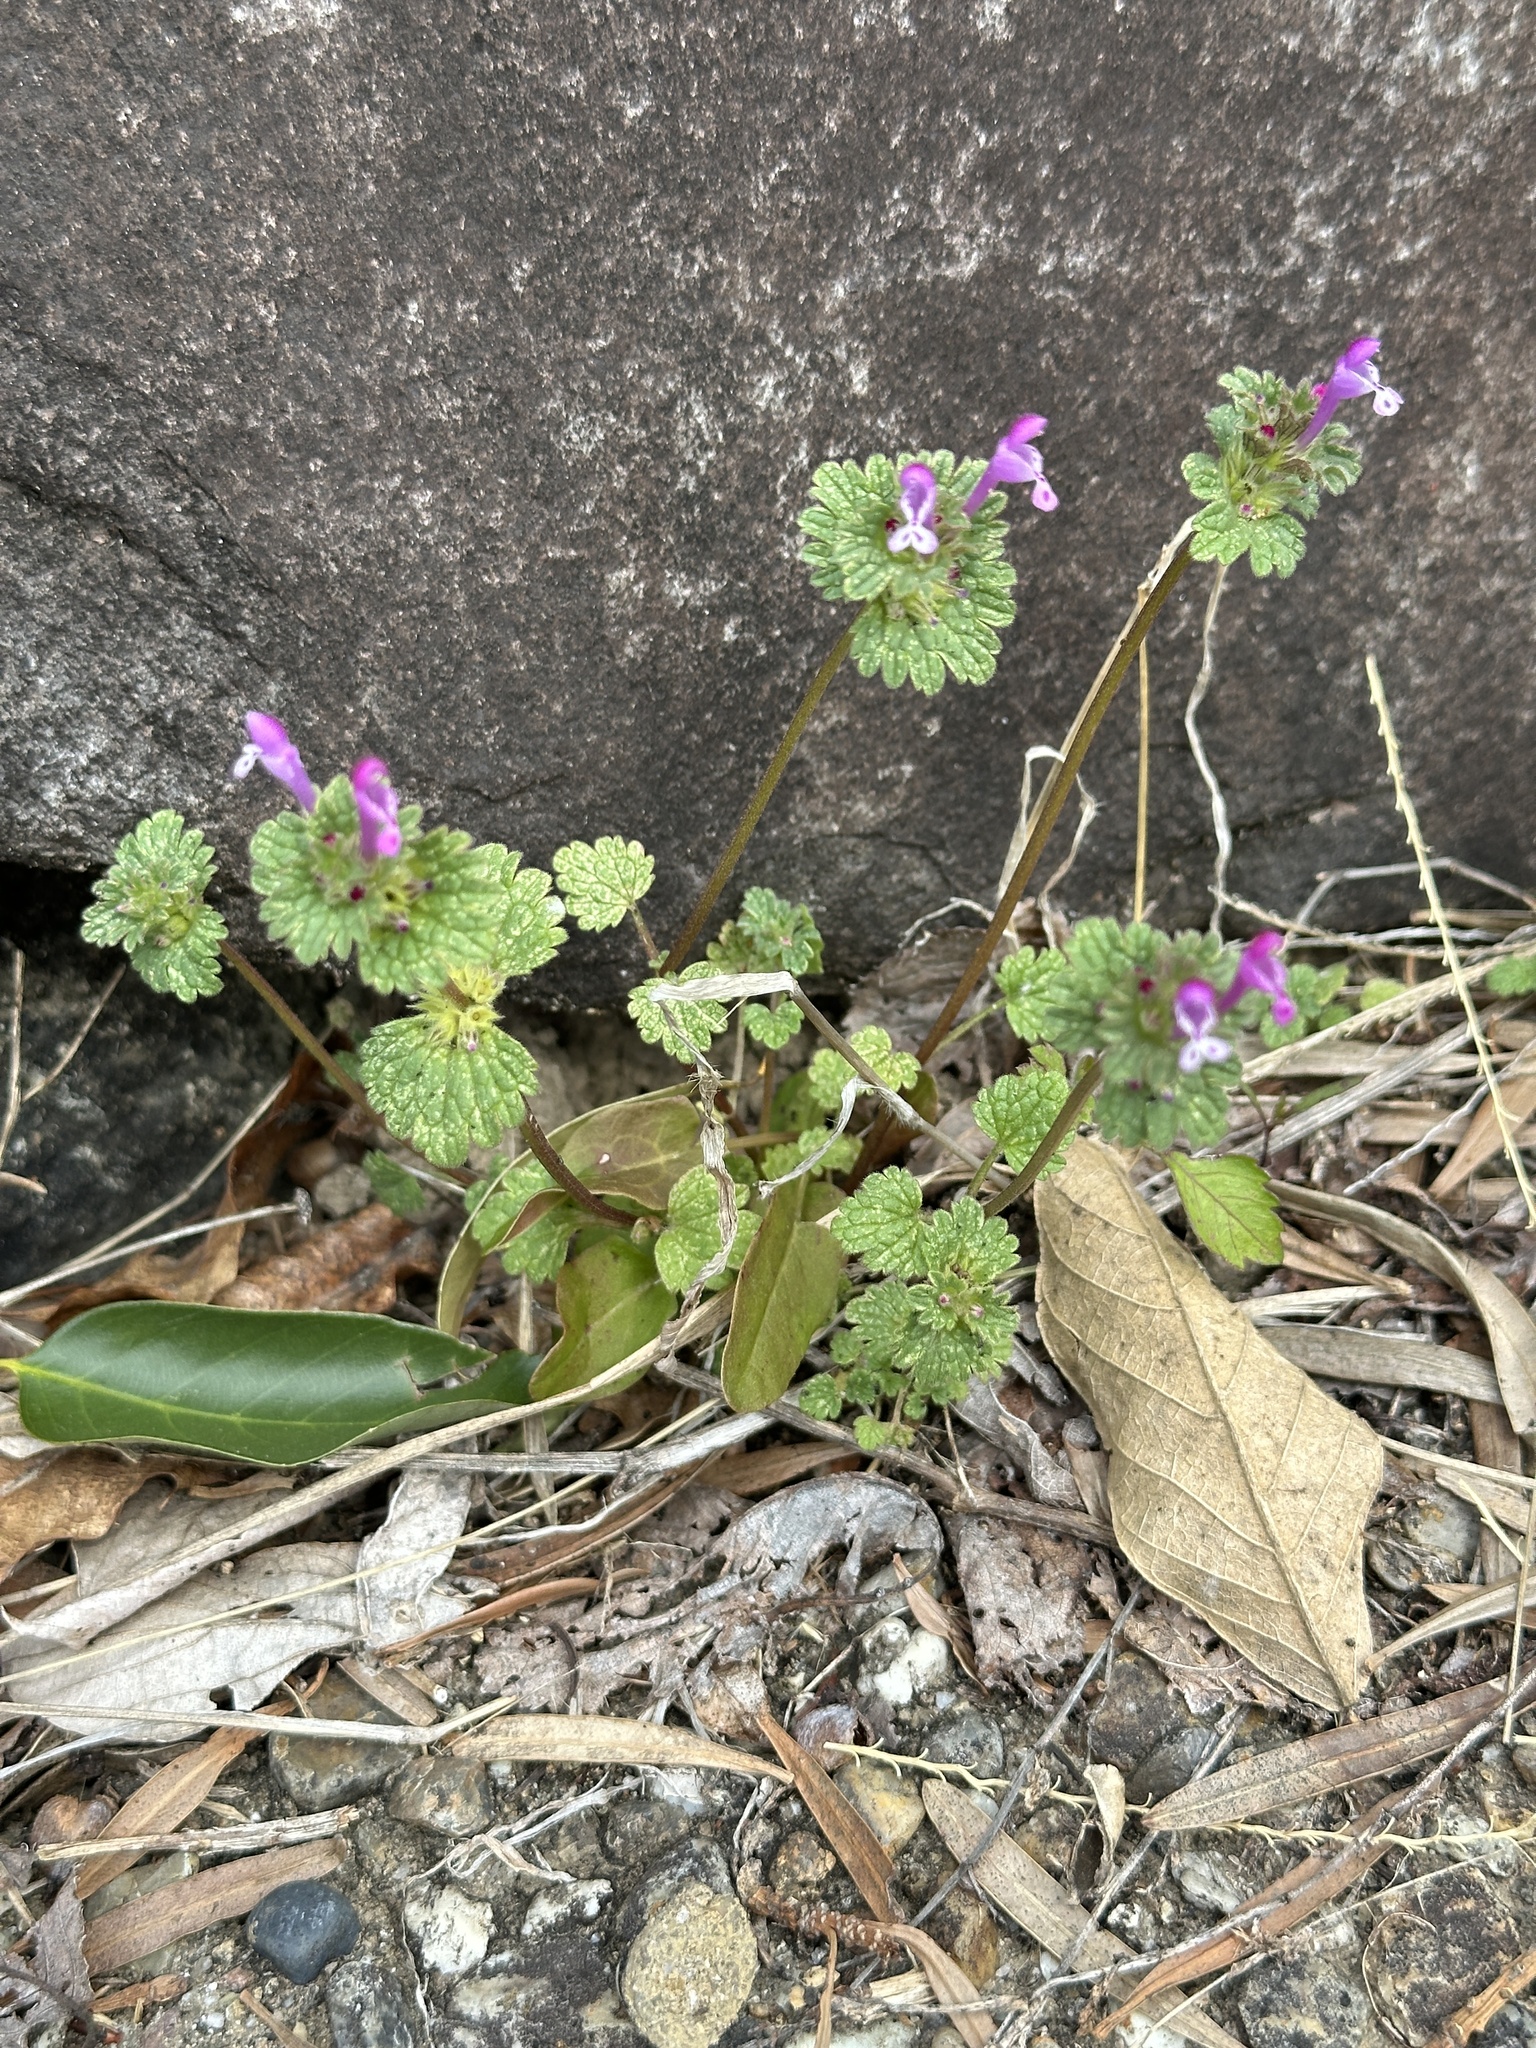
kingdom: Plantae
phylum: Tracheophyta
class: Magnoliopsida
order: Lamiales
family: Lamiaceae
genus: Lamium
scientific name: Lamium amplexicaule
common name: Henbit dead-nettle
